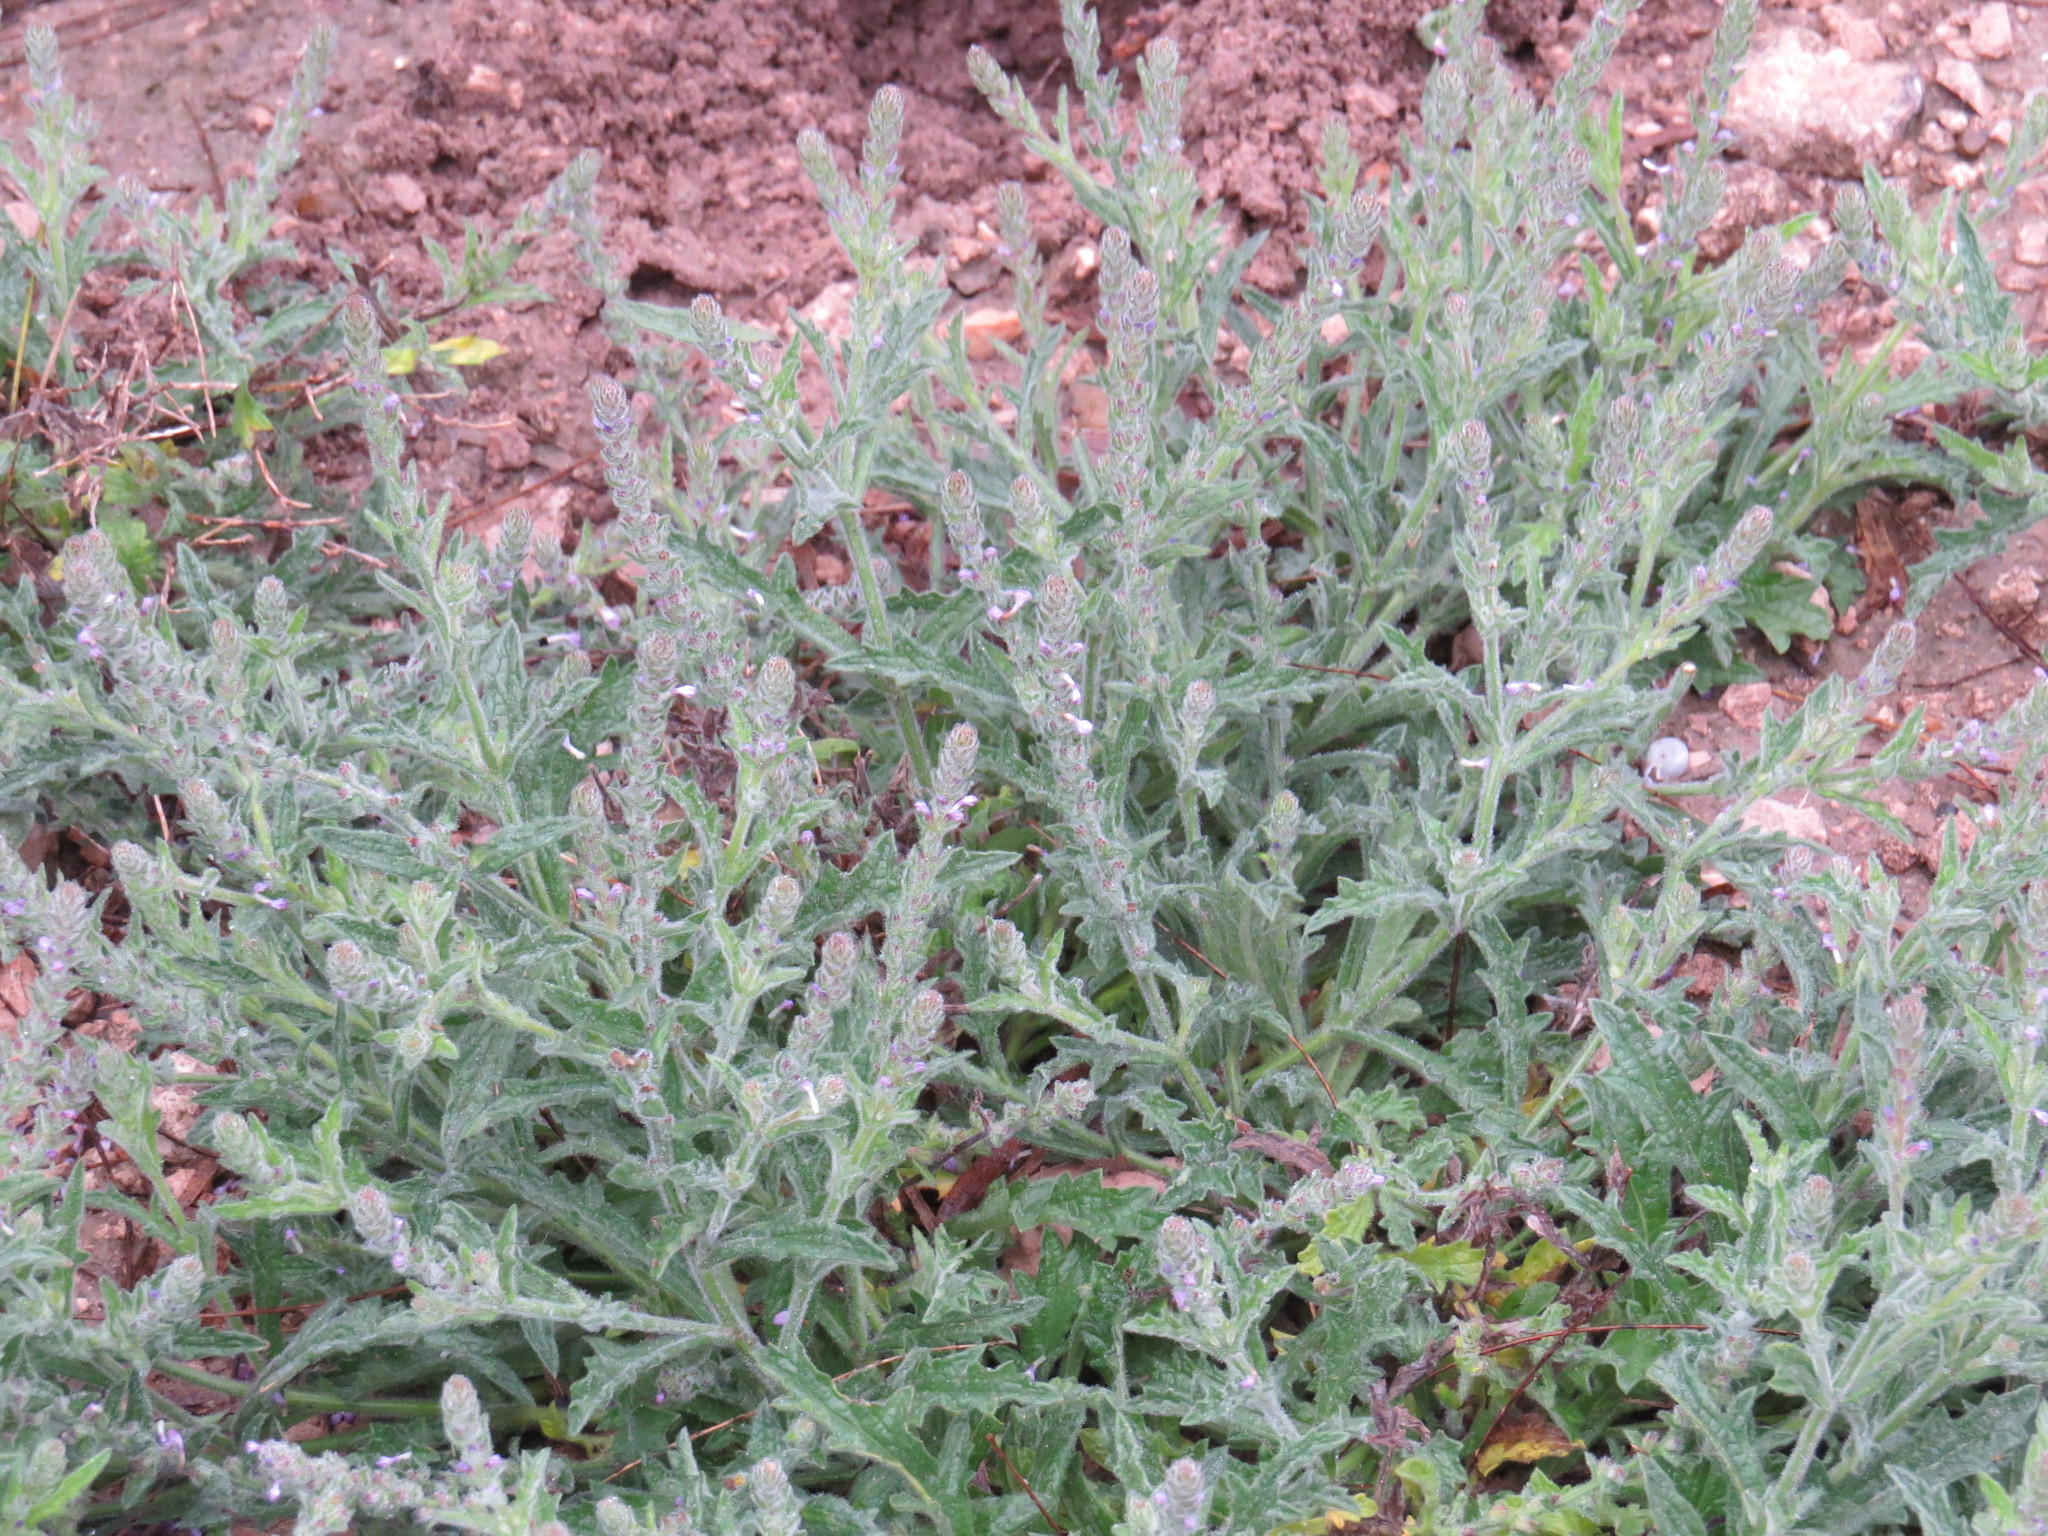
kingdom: Plantae
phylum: Tracheophyta
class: Magnoliopsida
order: Lamiales
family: Verbenaceae
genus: Verbena
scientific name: Verbena neomexicana
